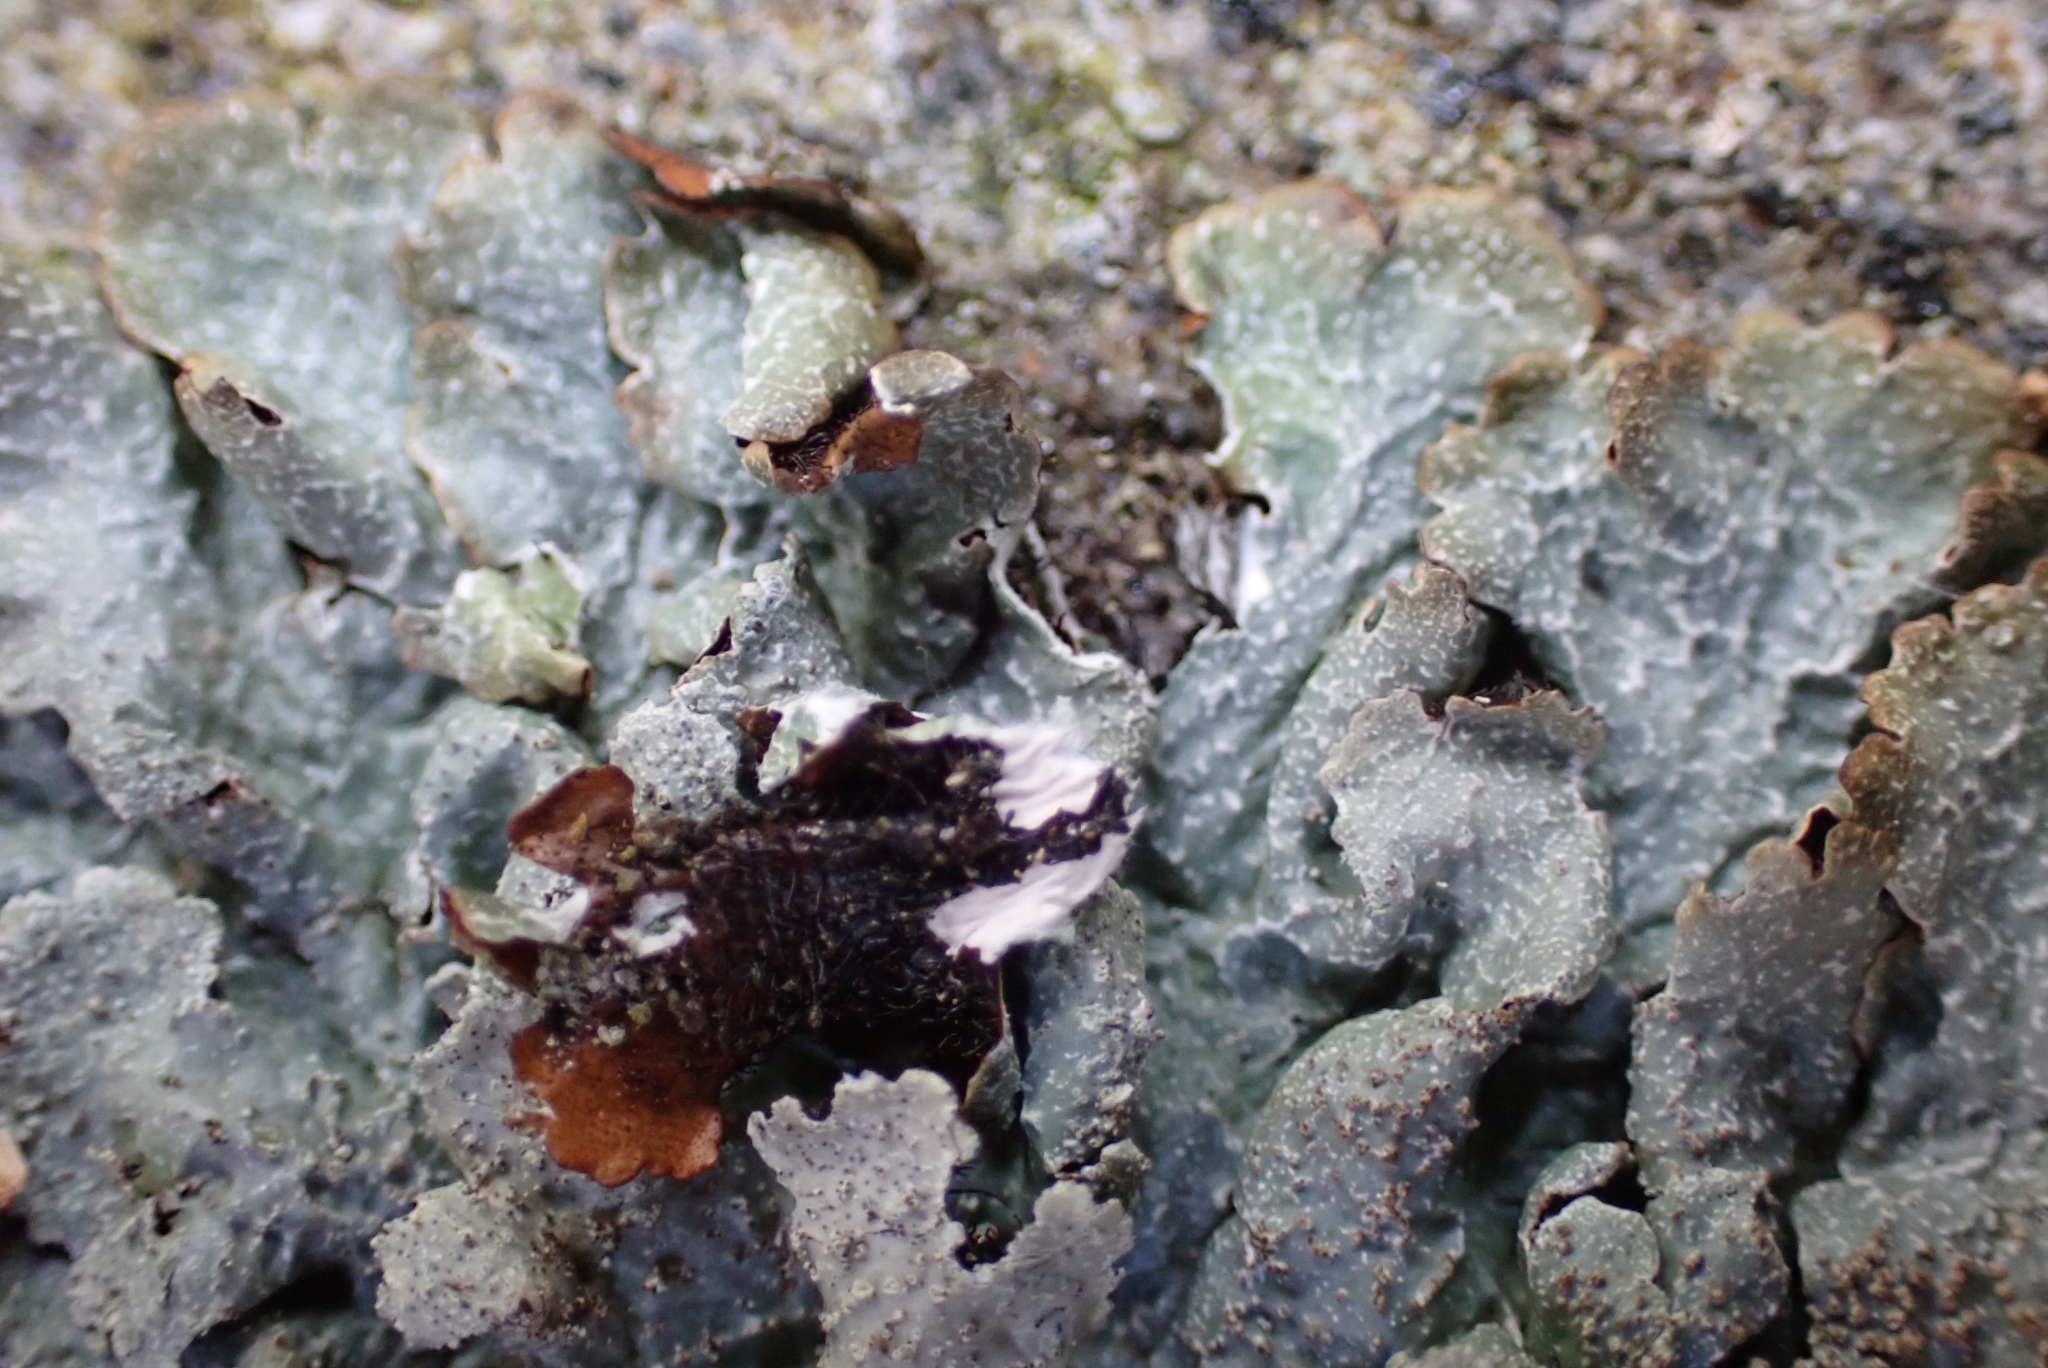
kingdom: Fungi
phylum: Ascomycota
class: Lecanoromycetes
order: Lecanorales
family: Parmeliaceae
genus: Parmelia
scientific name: Parmelia saxatilis
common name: Salted shield lichen
